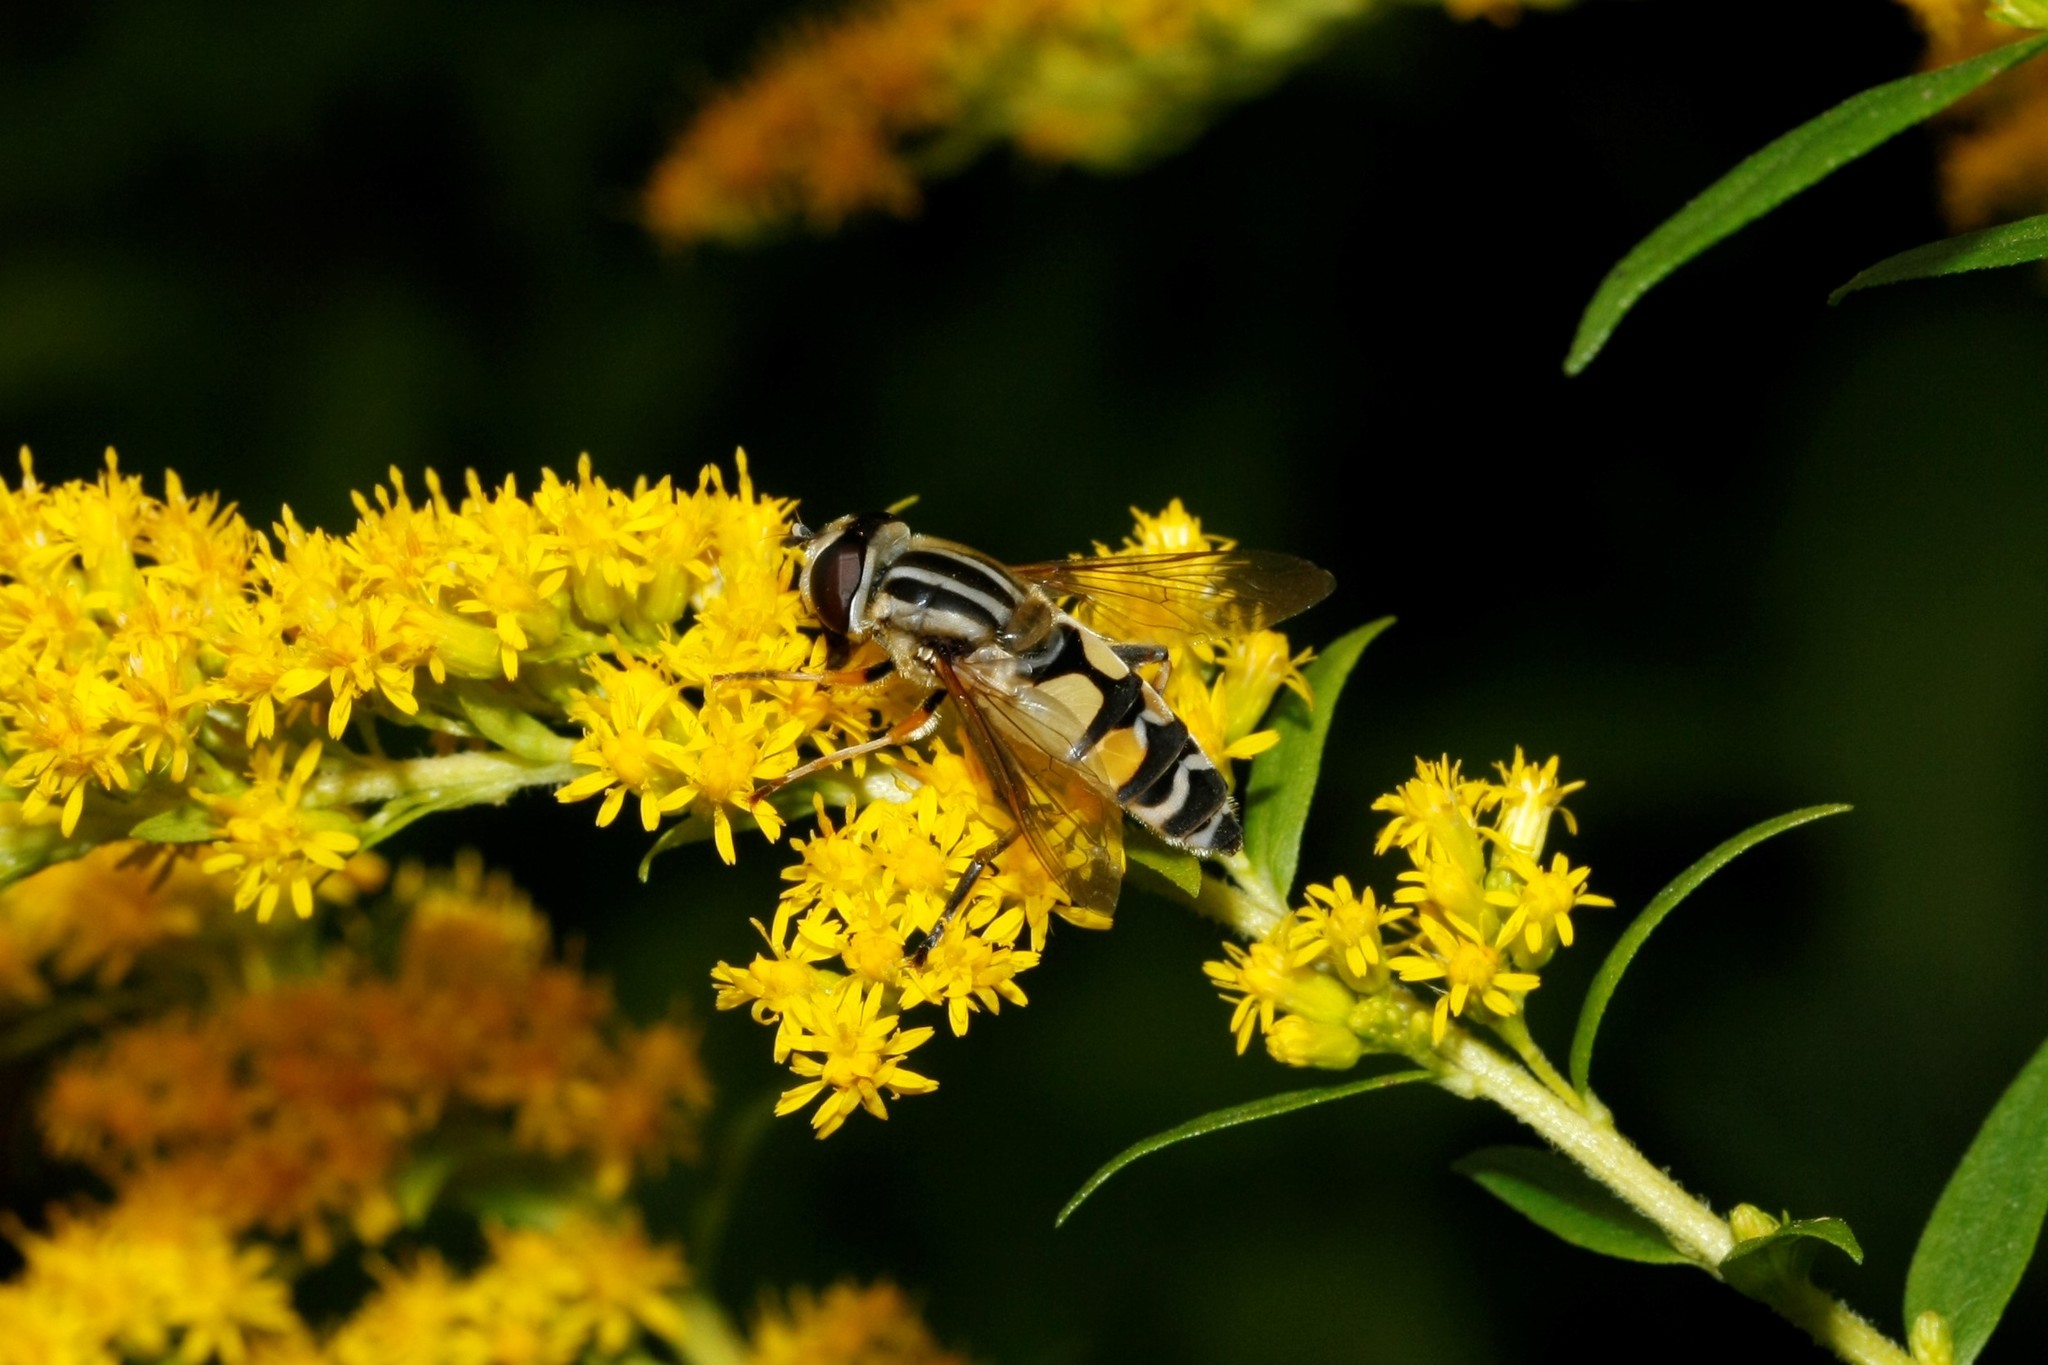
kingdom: Animalia
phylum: Arthropoda
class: Insecta
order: Diptera
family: Syrphidae
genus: Helophilus
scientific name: Helophilus trivittatus
